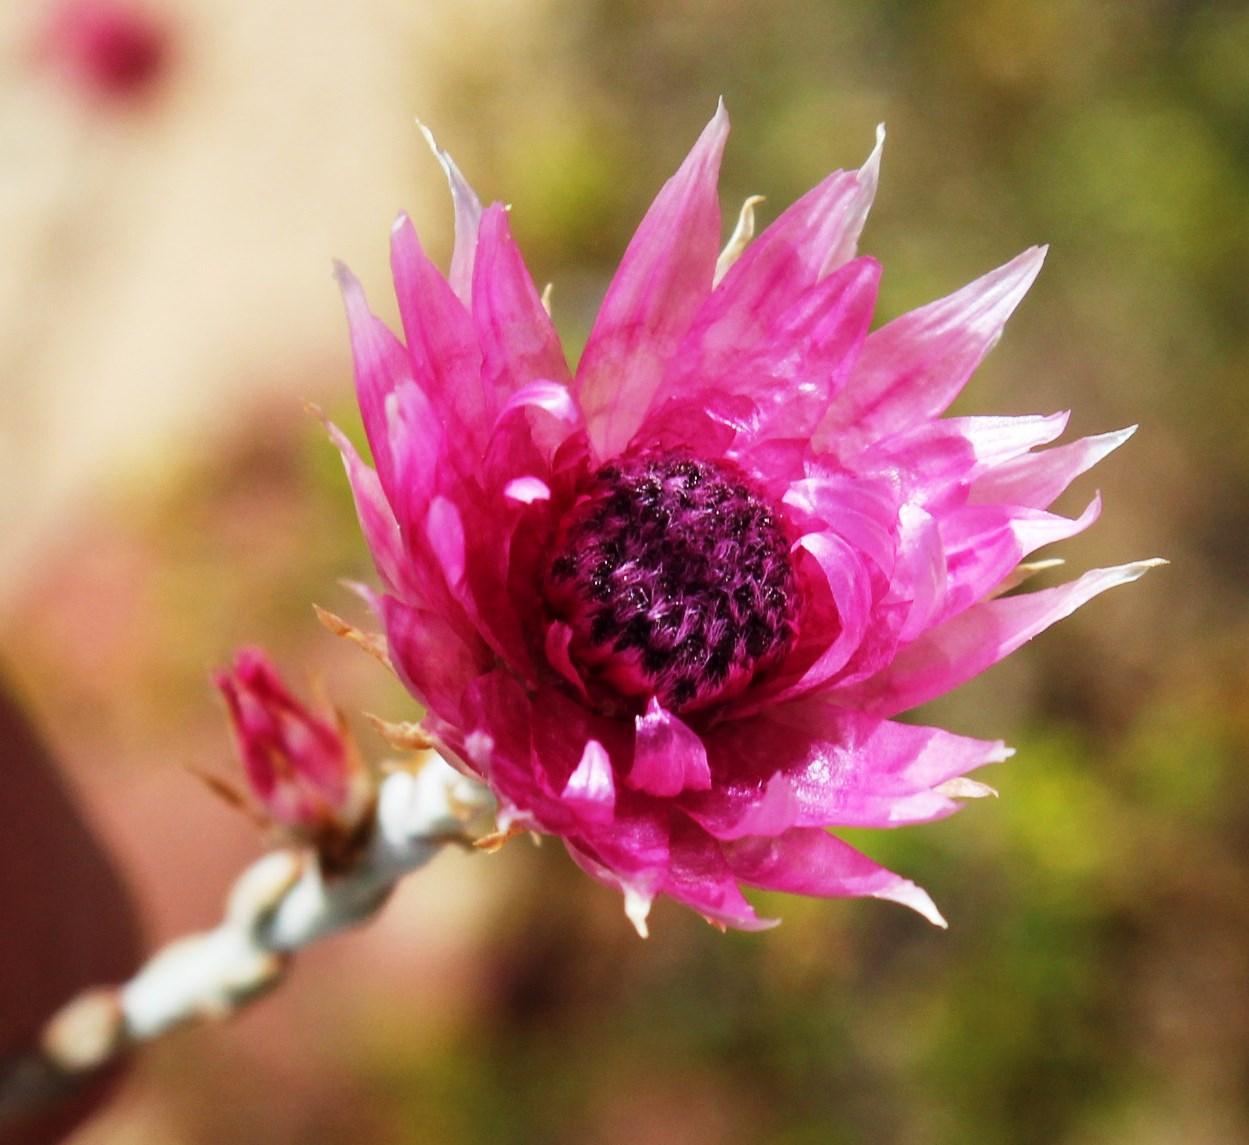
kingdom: Plantae
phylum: Tracheophyta
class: Magnoliopsida
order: Asterales
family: Asteraceae
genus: Syncarpha
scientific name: Syncarpha canescens
